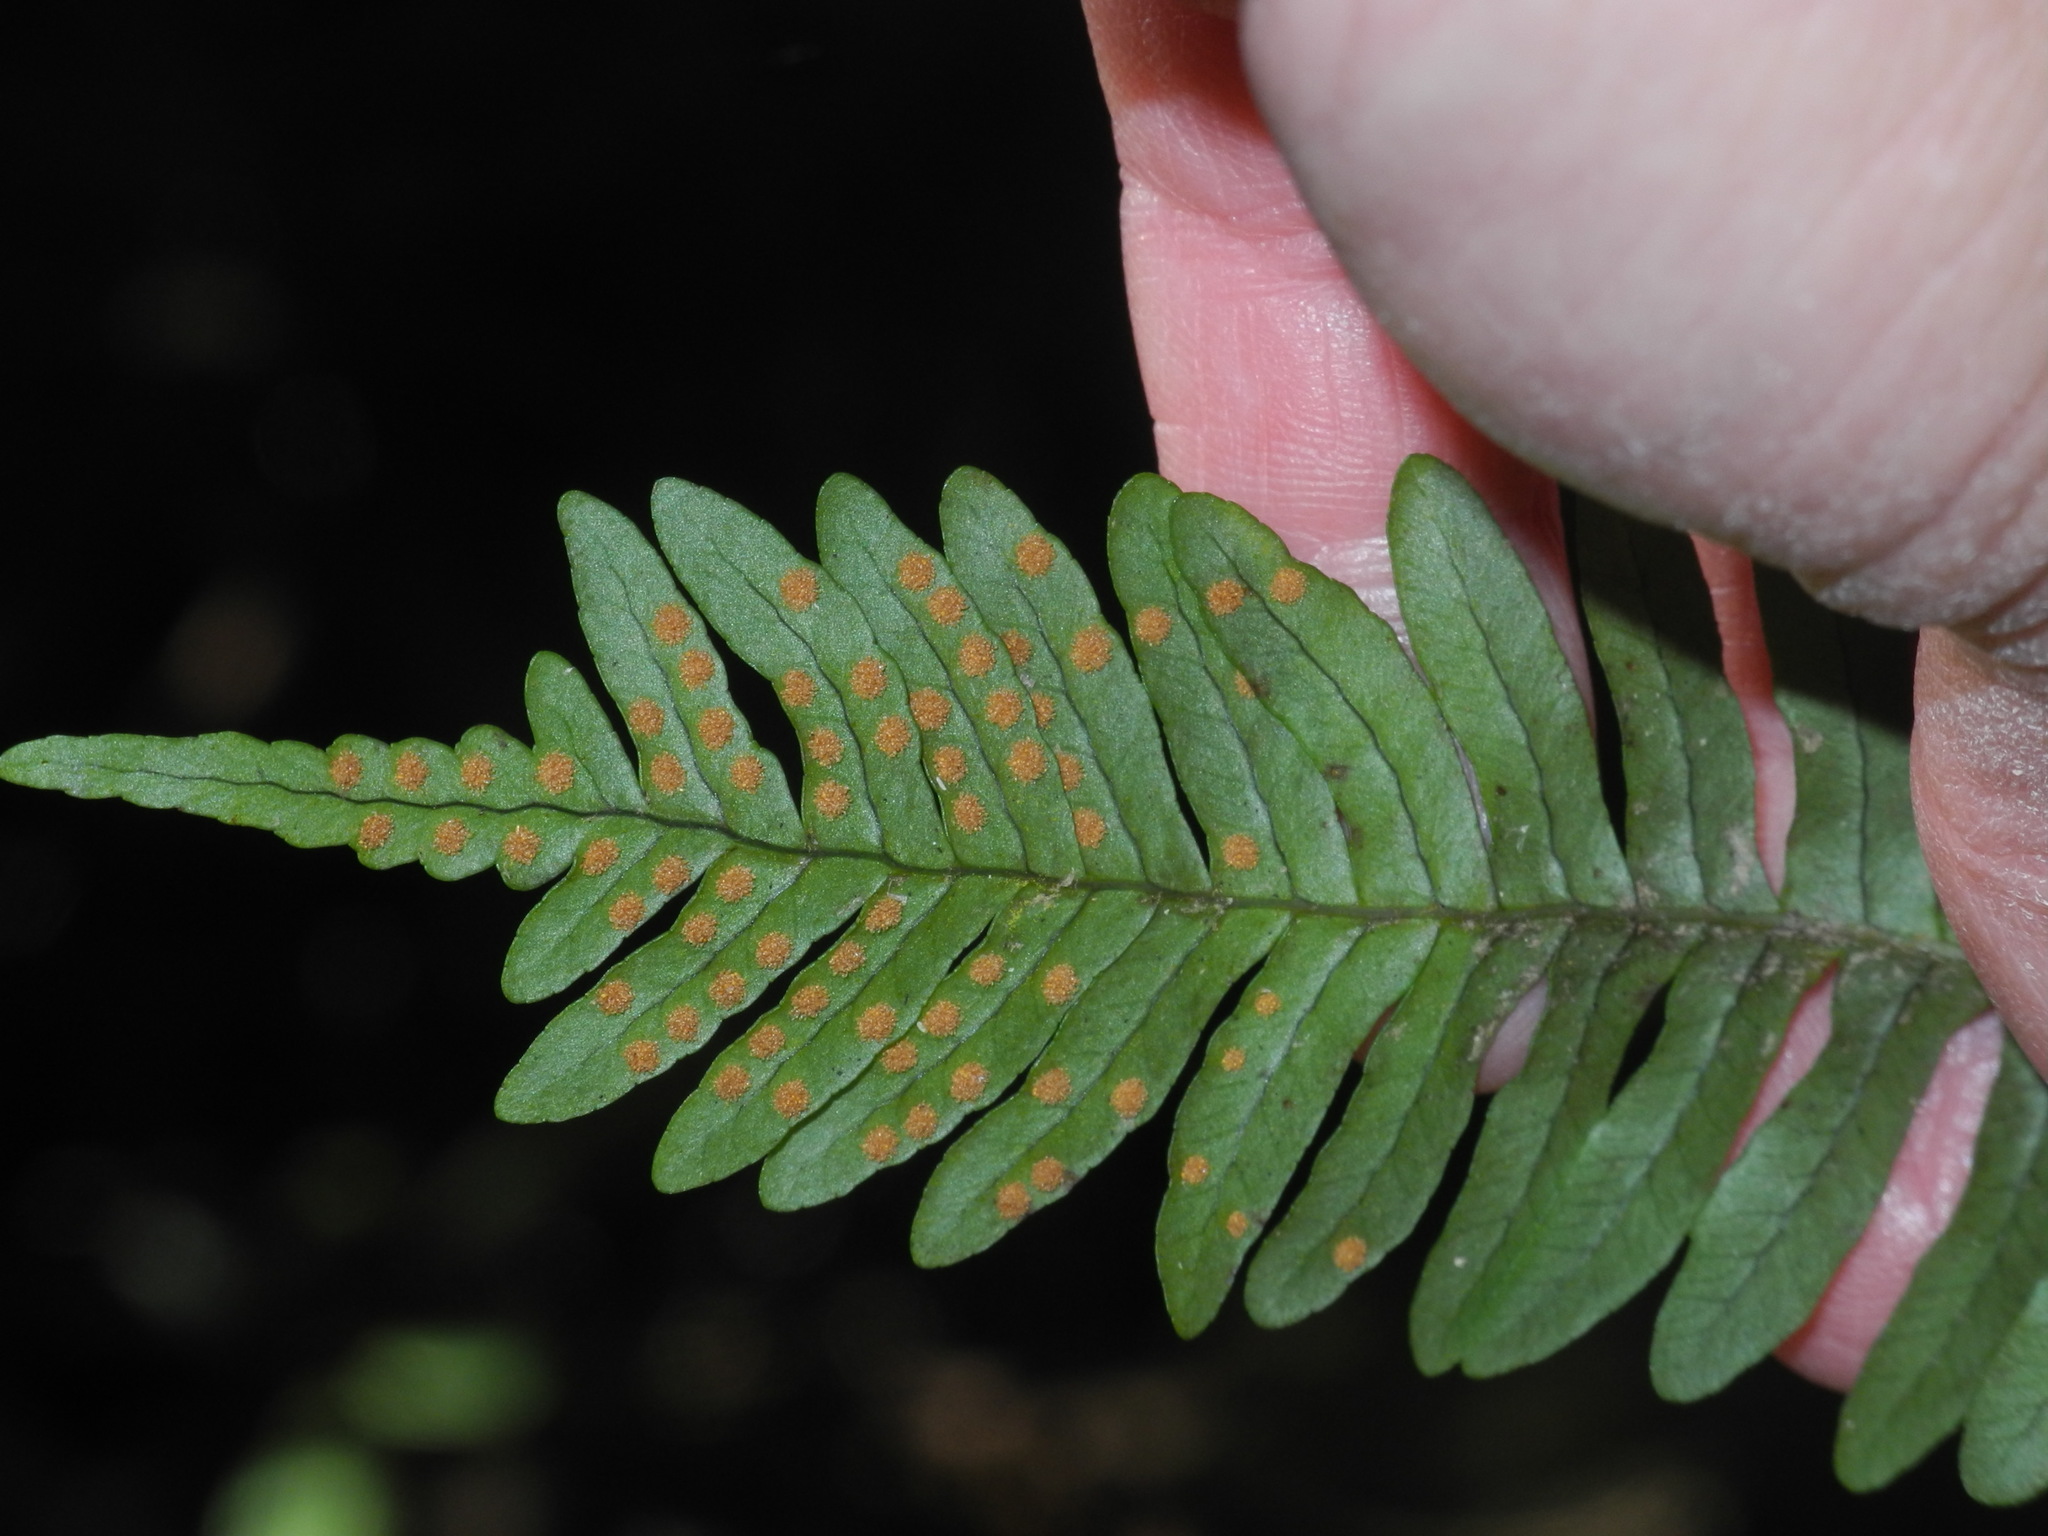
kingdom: Plantae
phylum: Tracheophyta
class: Polypodiopsida
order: Polypodiales
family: Polypodiaceae
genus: Polypodium
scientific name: Polypodium virginianum
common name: American wall fern
